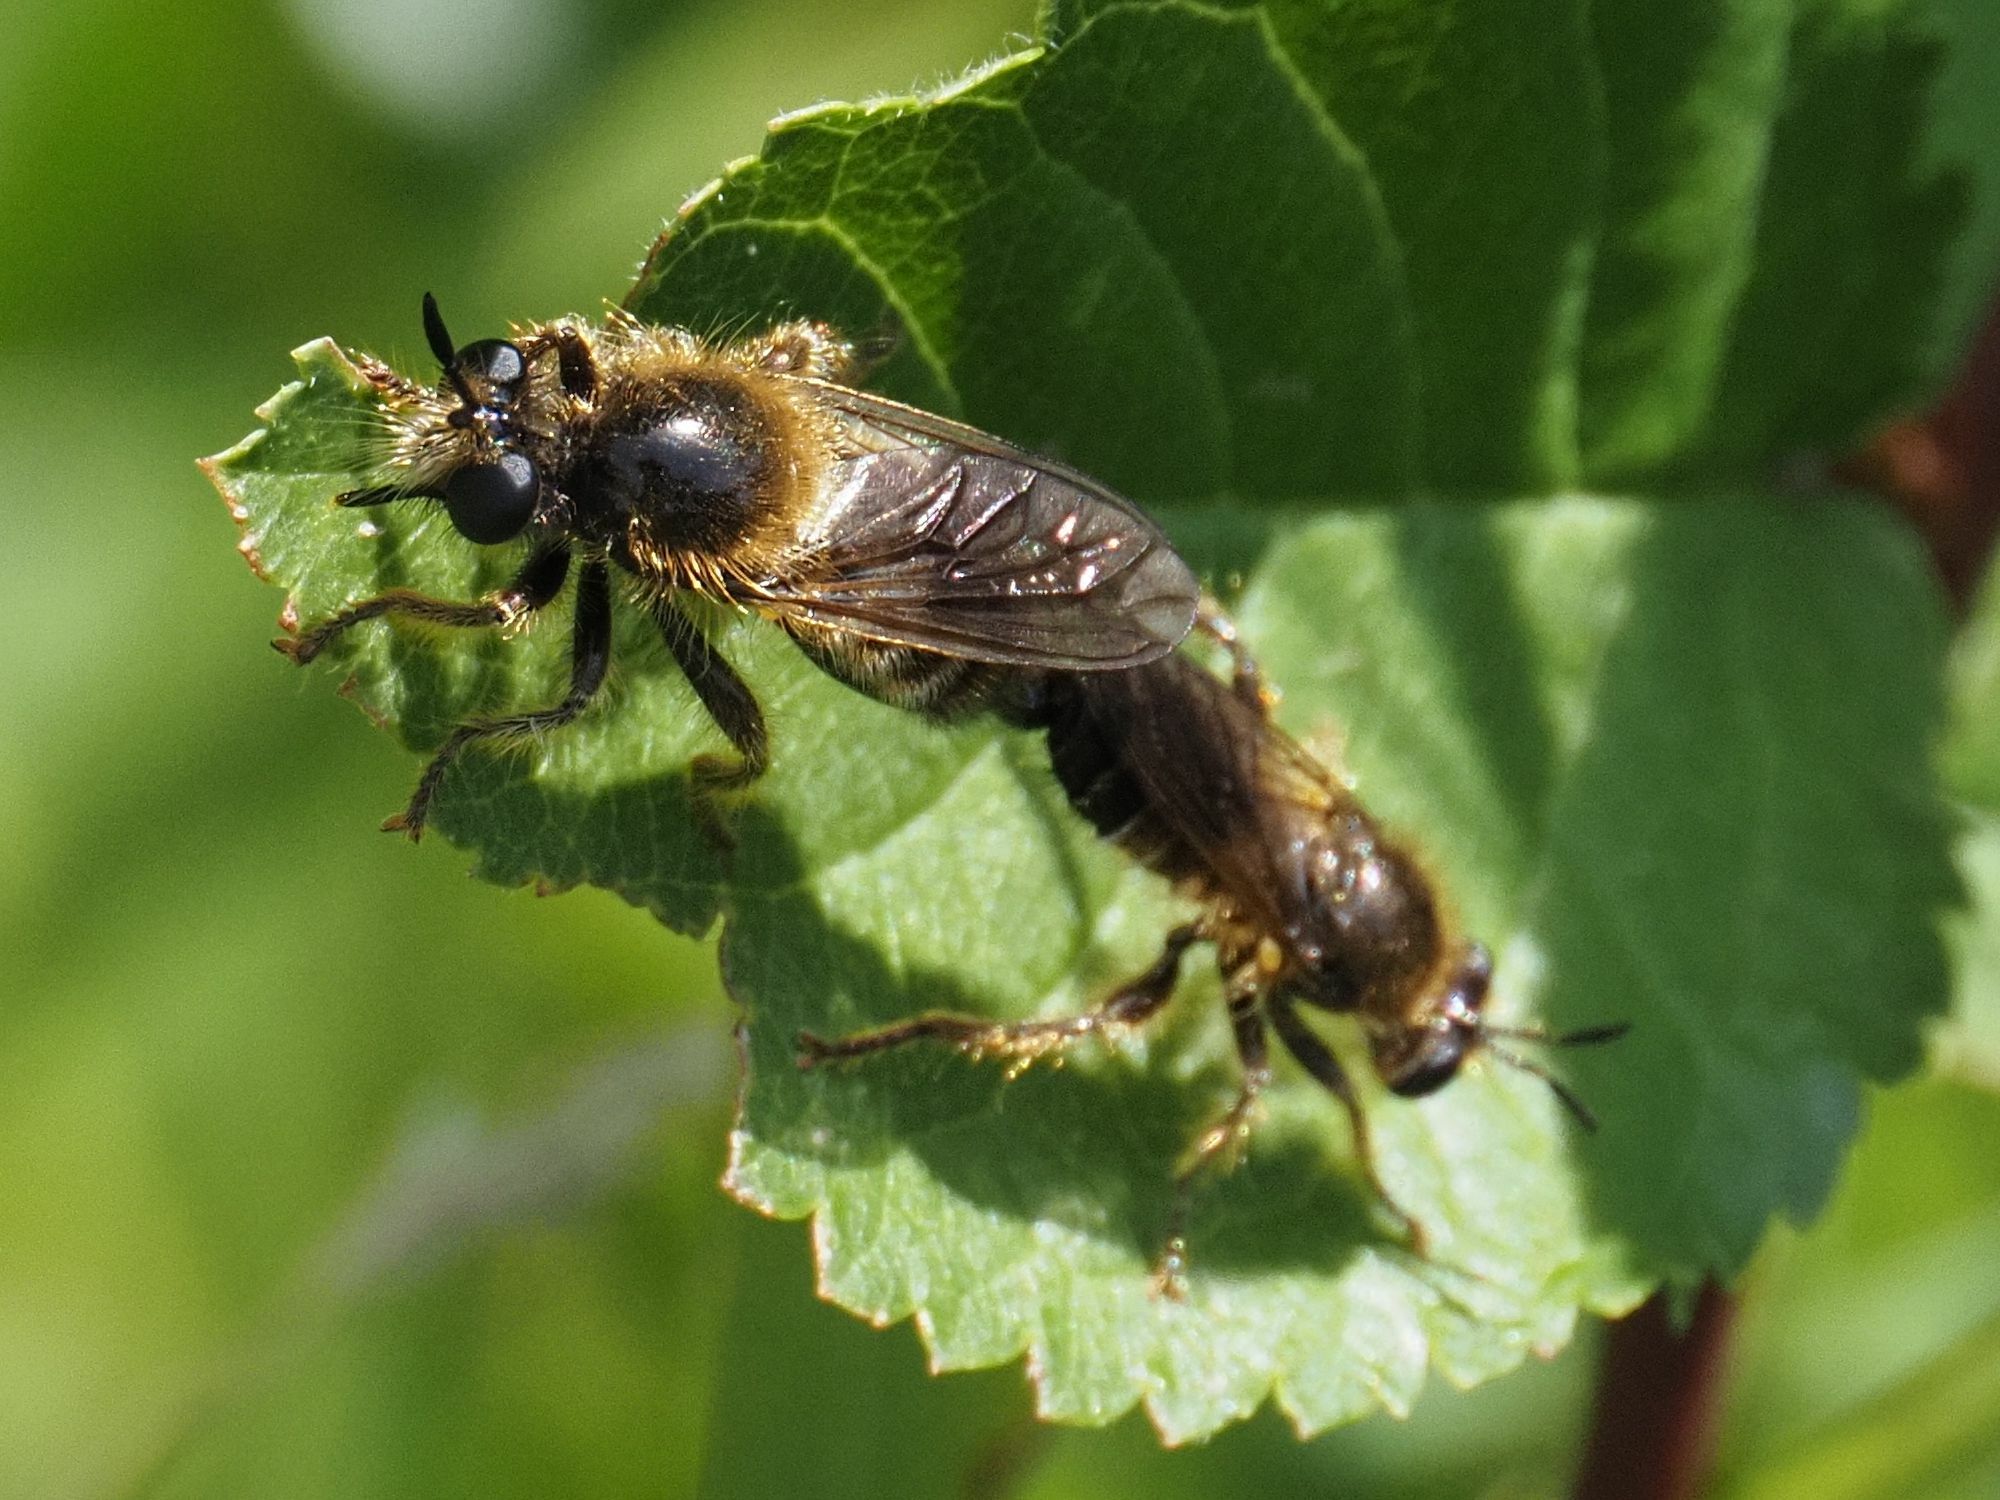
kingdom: Animalia
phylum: Arthropoda
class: Insecta
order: Diptera
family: Asilidae
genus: Lamyra
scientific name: Lamyra fuliginosa
